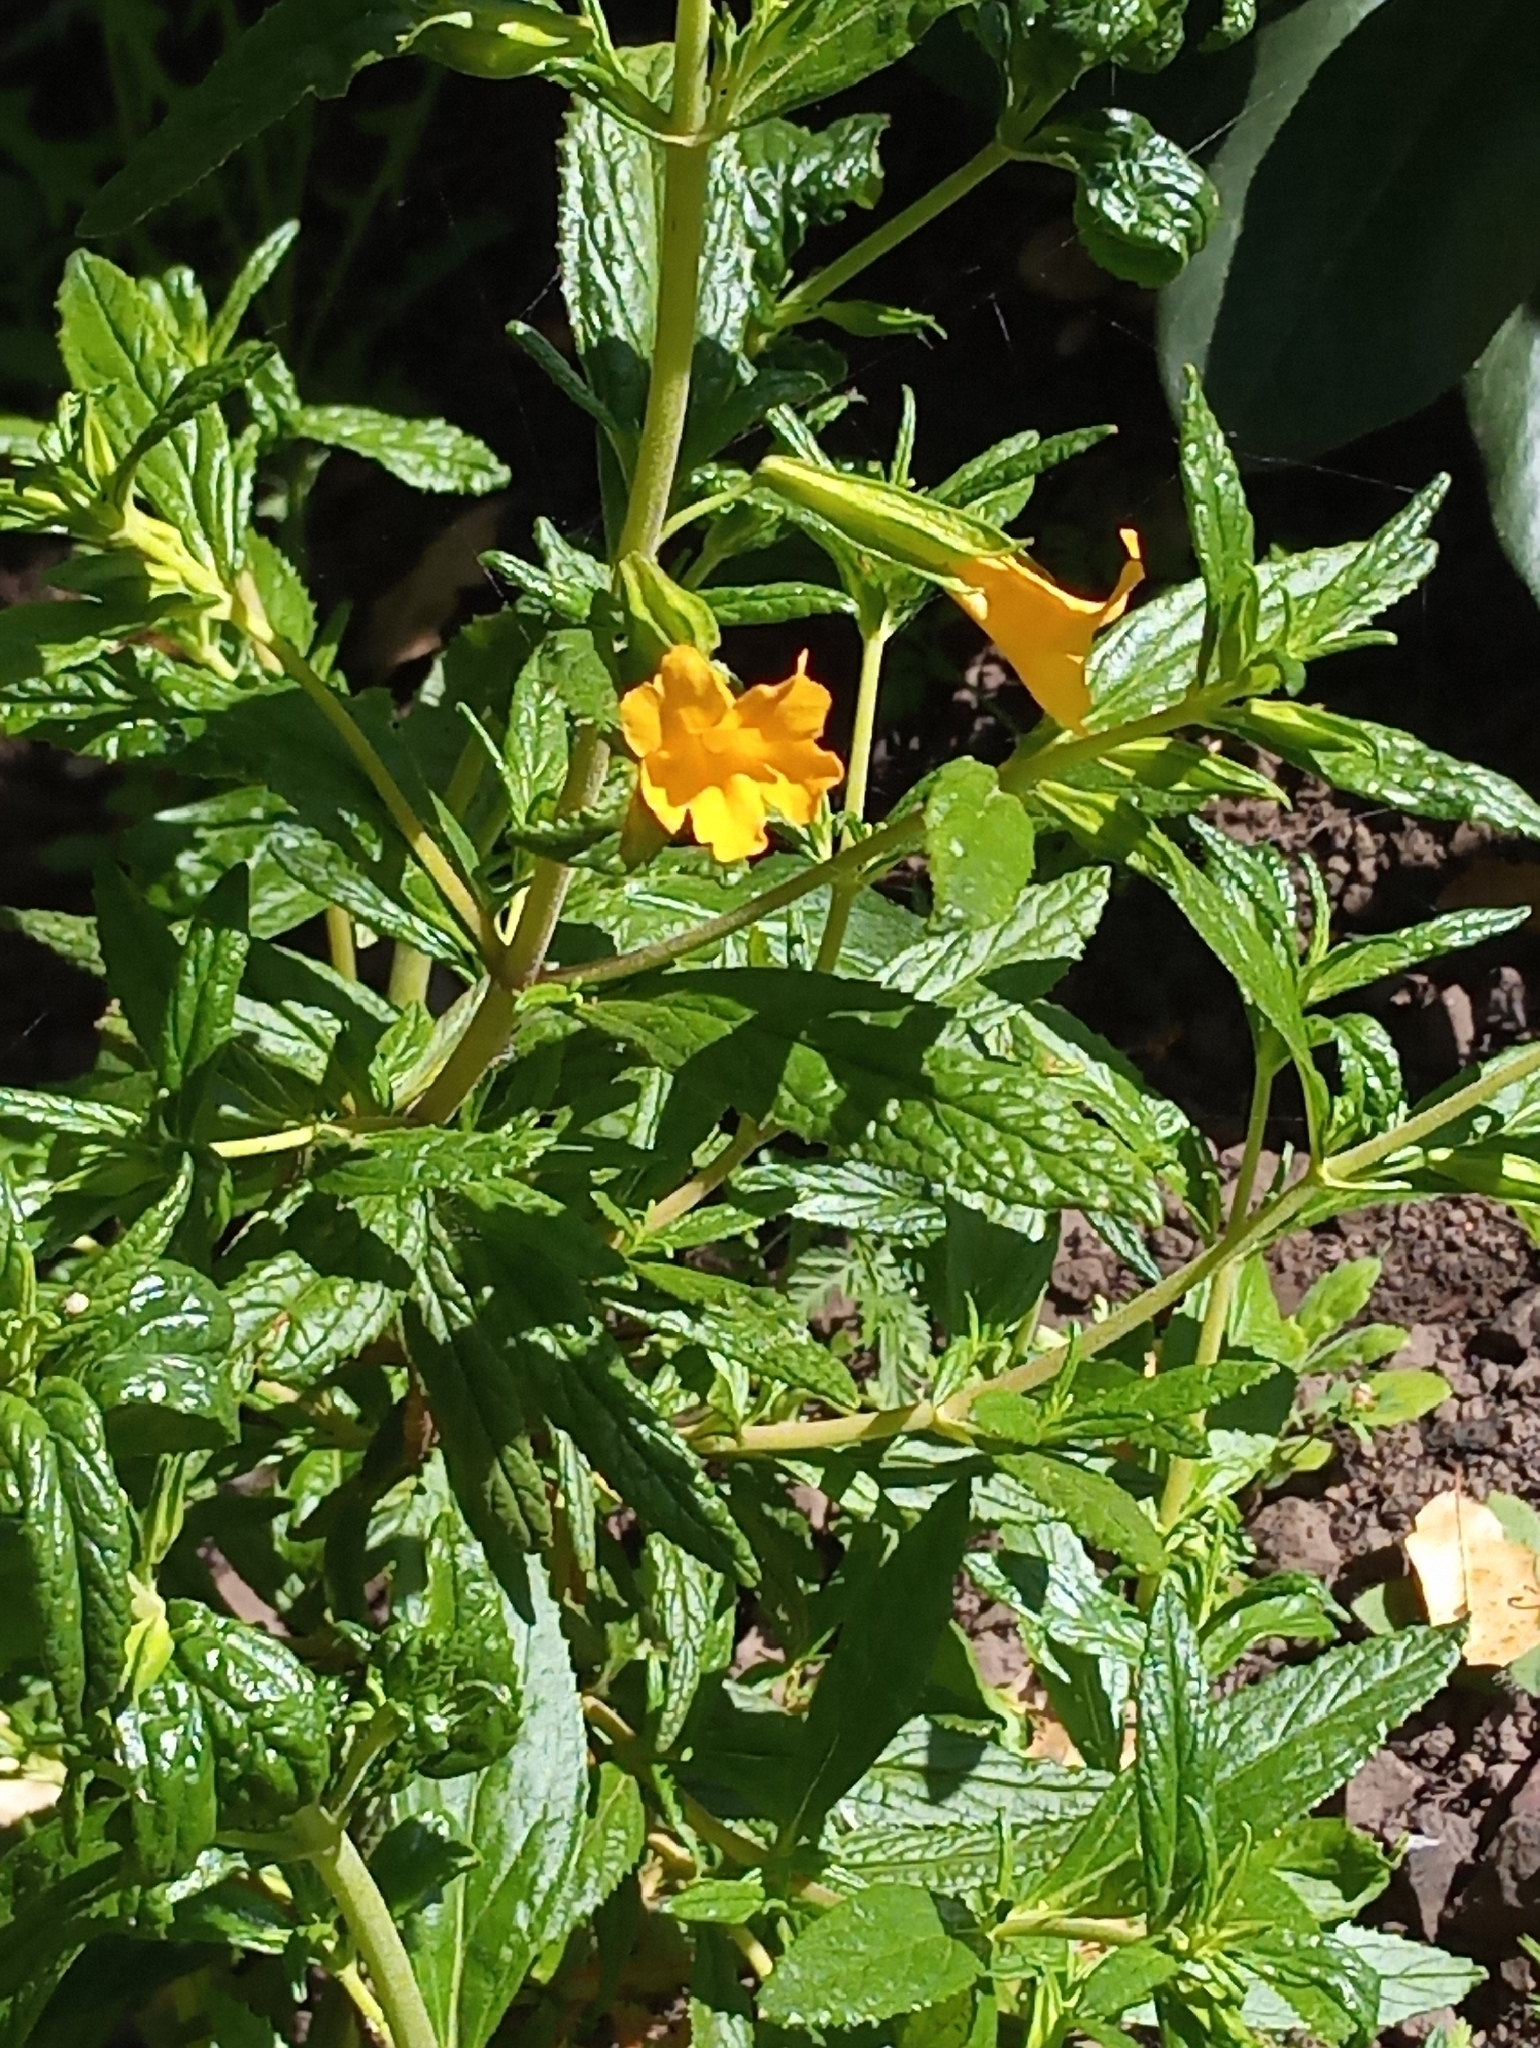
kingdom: Plantae
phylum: Tracheophyta
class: Magnoliopsida
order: Lamiales
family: Phrymaceae
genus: Diplacus
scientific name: Diplacus aurantiacus
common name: Bush monkey-flower
